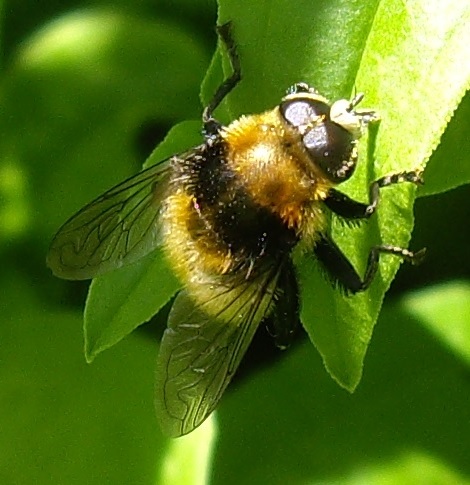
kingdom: Animalia
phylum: Arthropoda
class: Insecta
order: Diptera
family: Syrphidae
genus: Merodon
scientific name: Merodon equestris
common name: Greater bulb-fly
